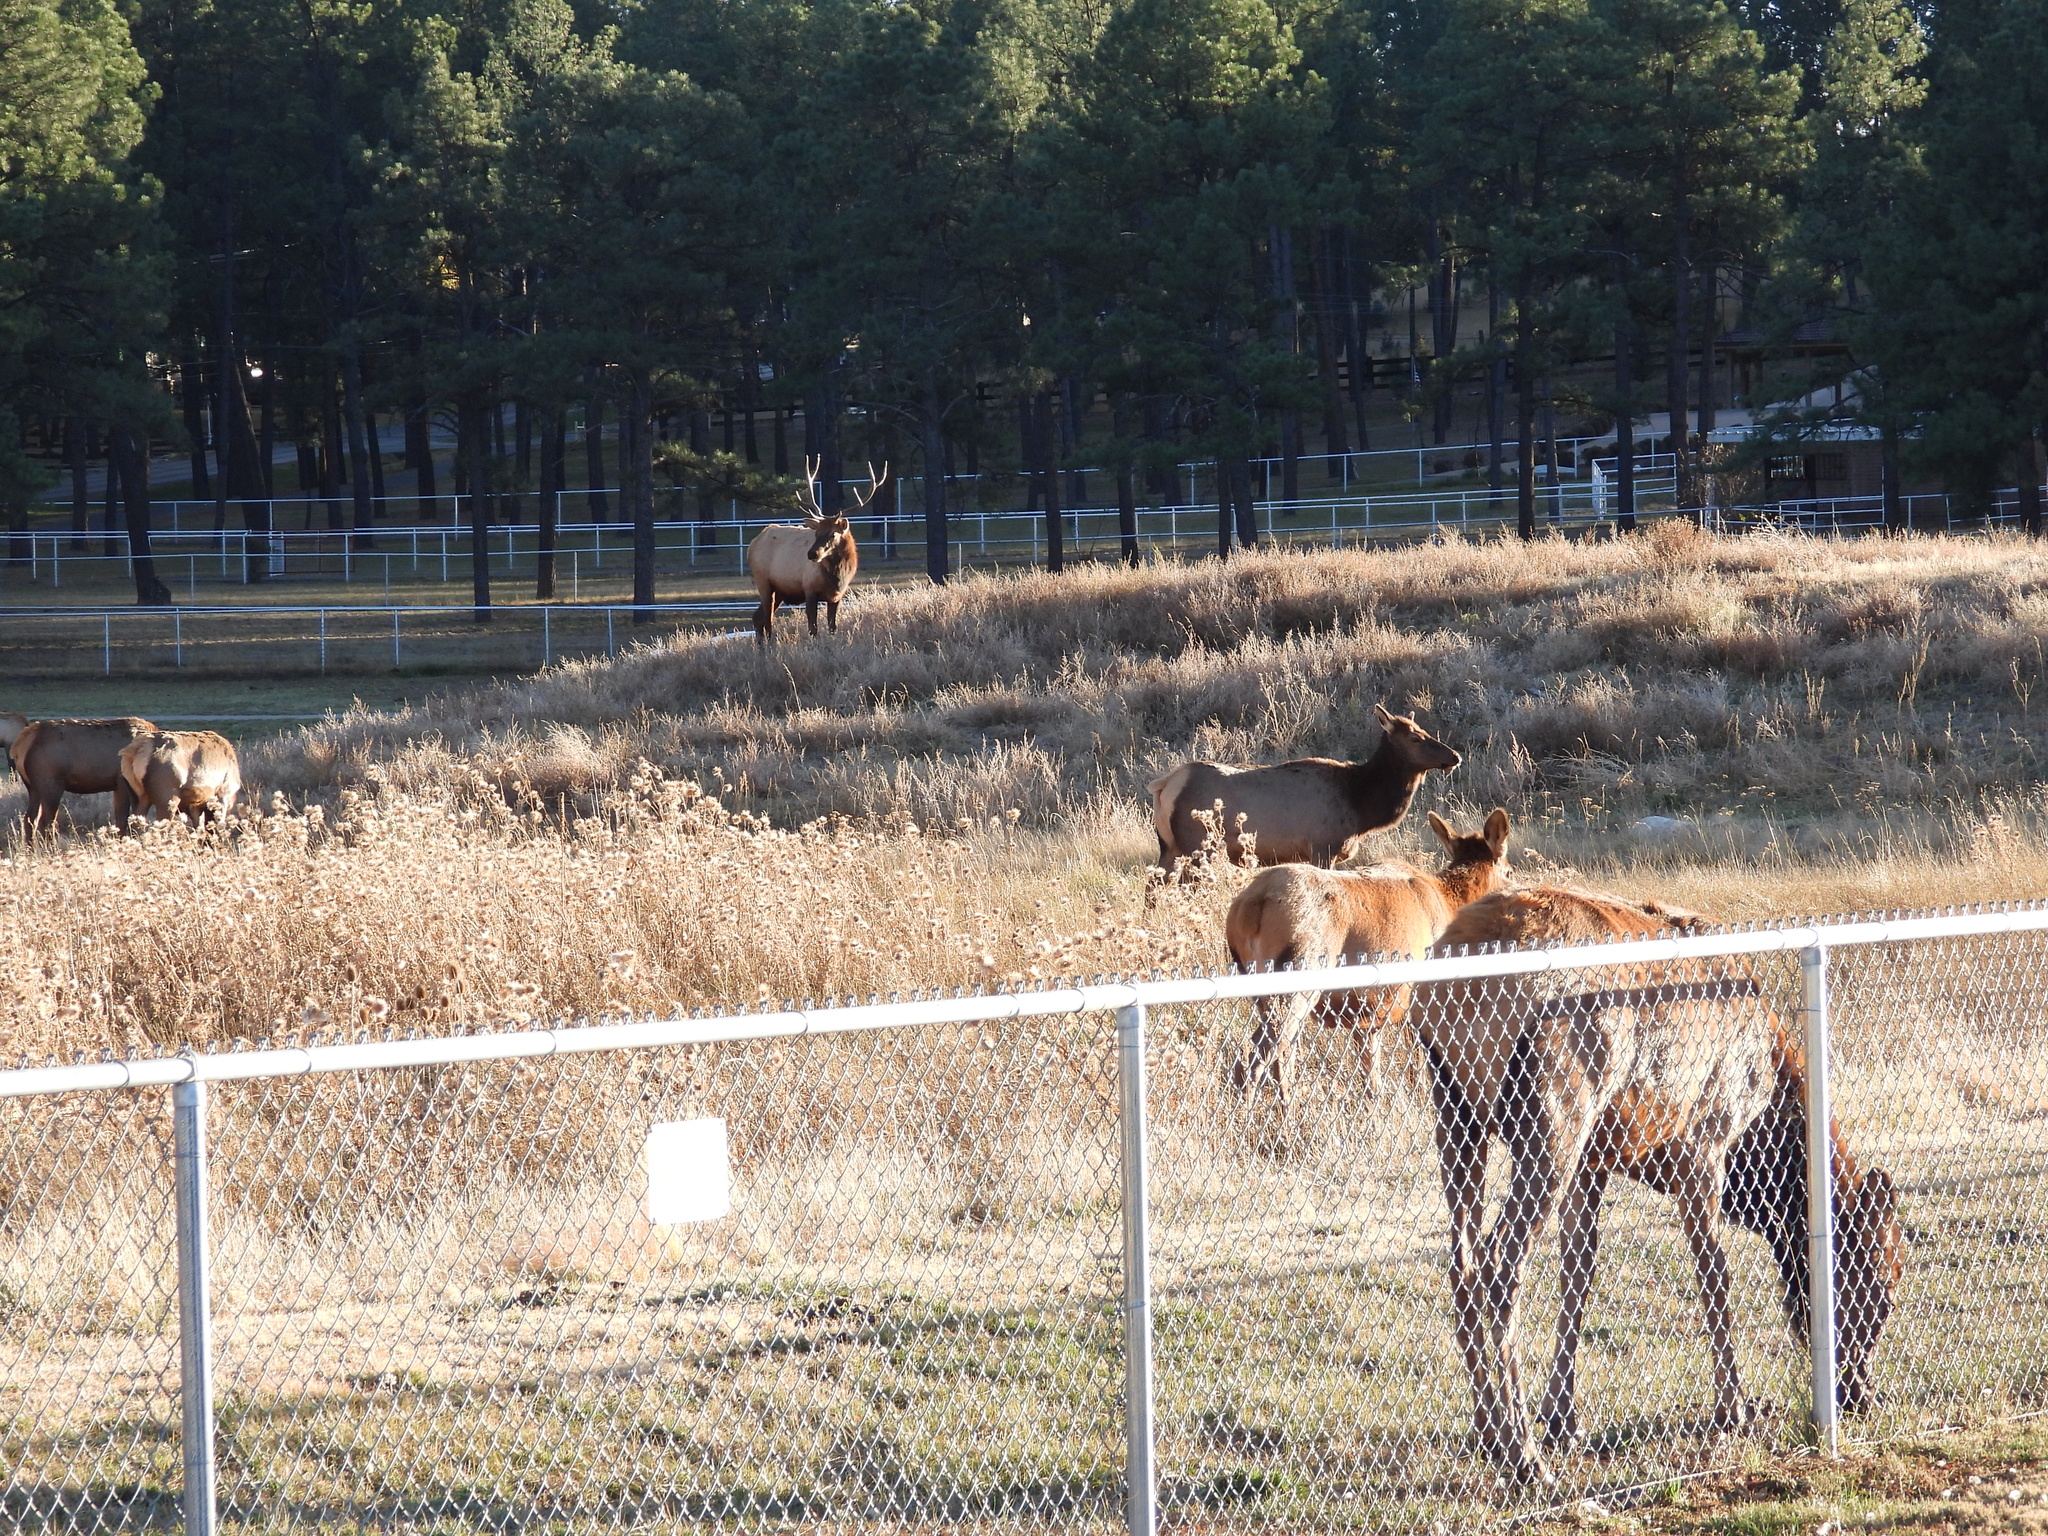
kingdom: Animalia
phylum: Chordata
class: Mammalia
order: Artiodactyla
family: Cervidae
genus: Cervus
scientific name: Cervus elaphus
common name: Red deer
